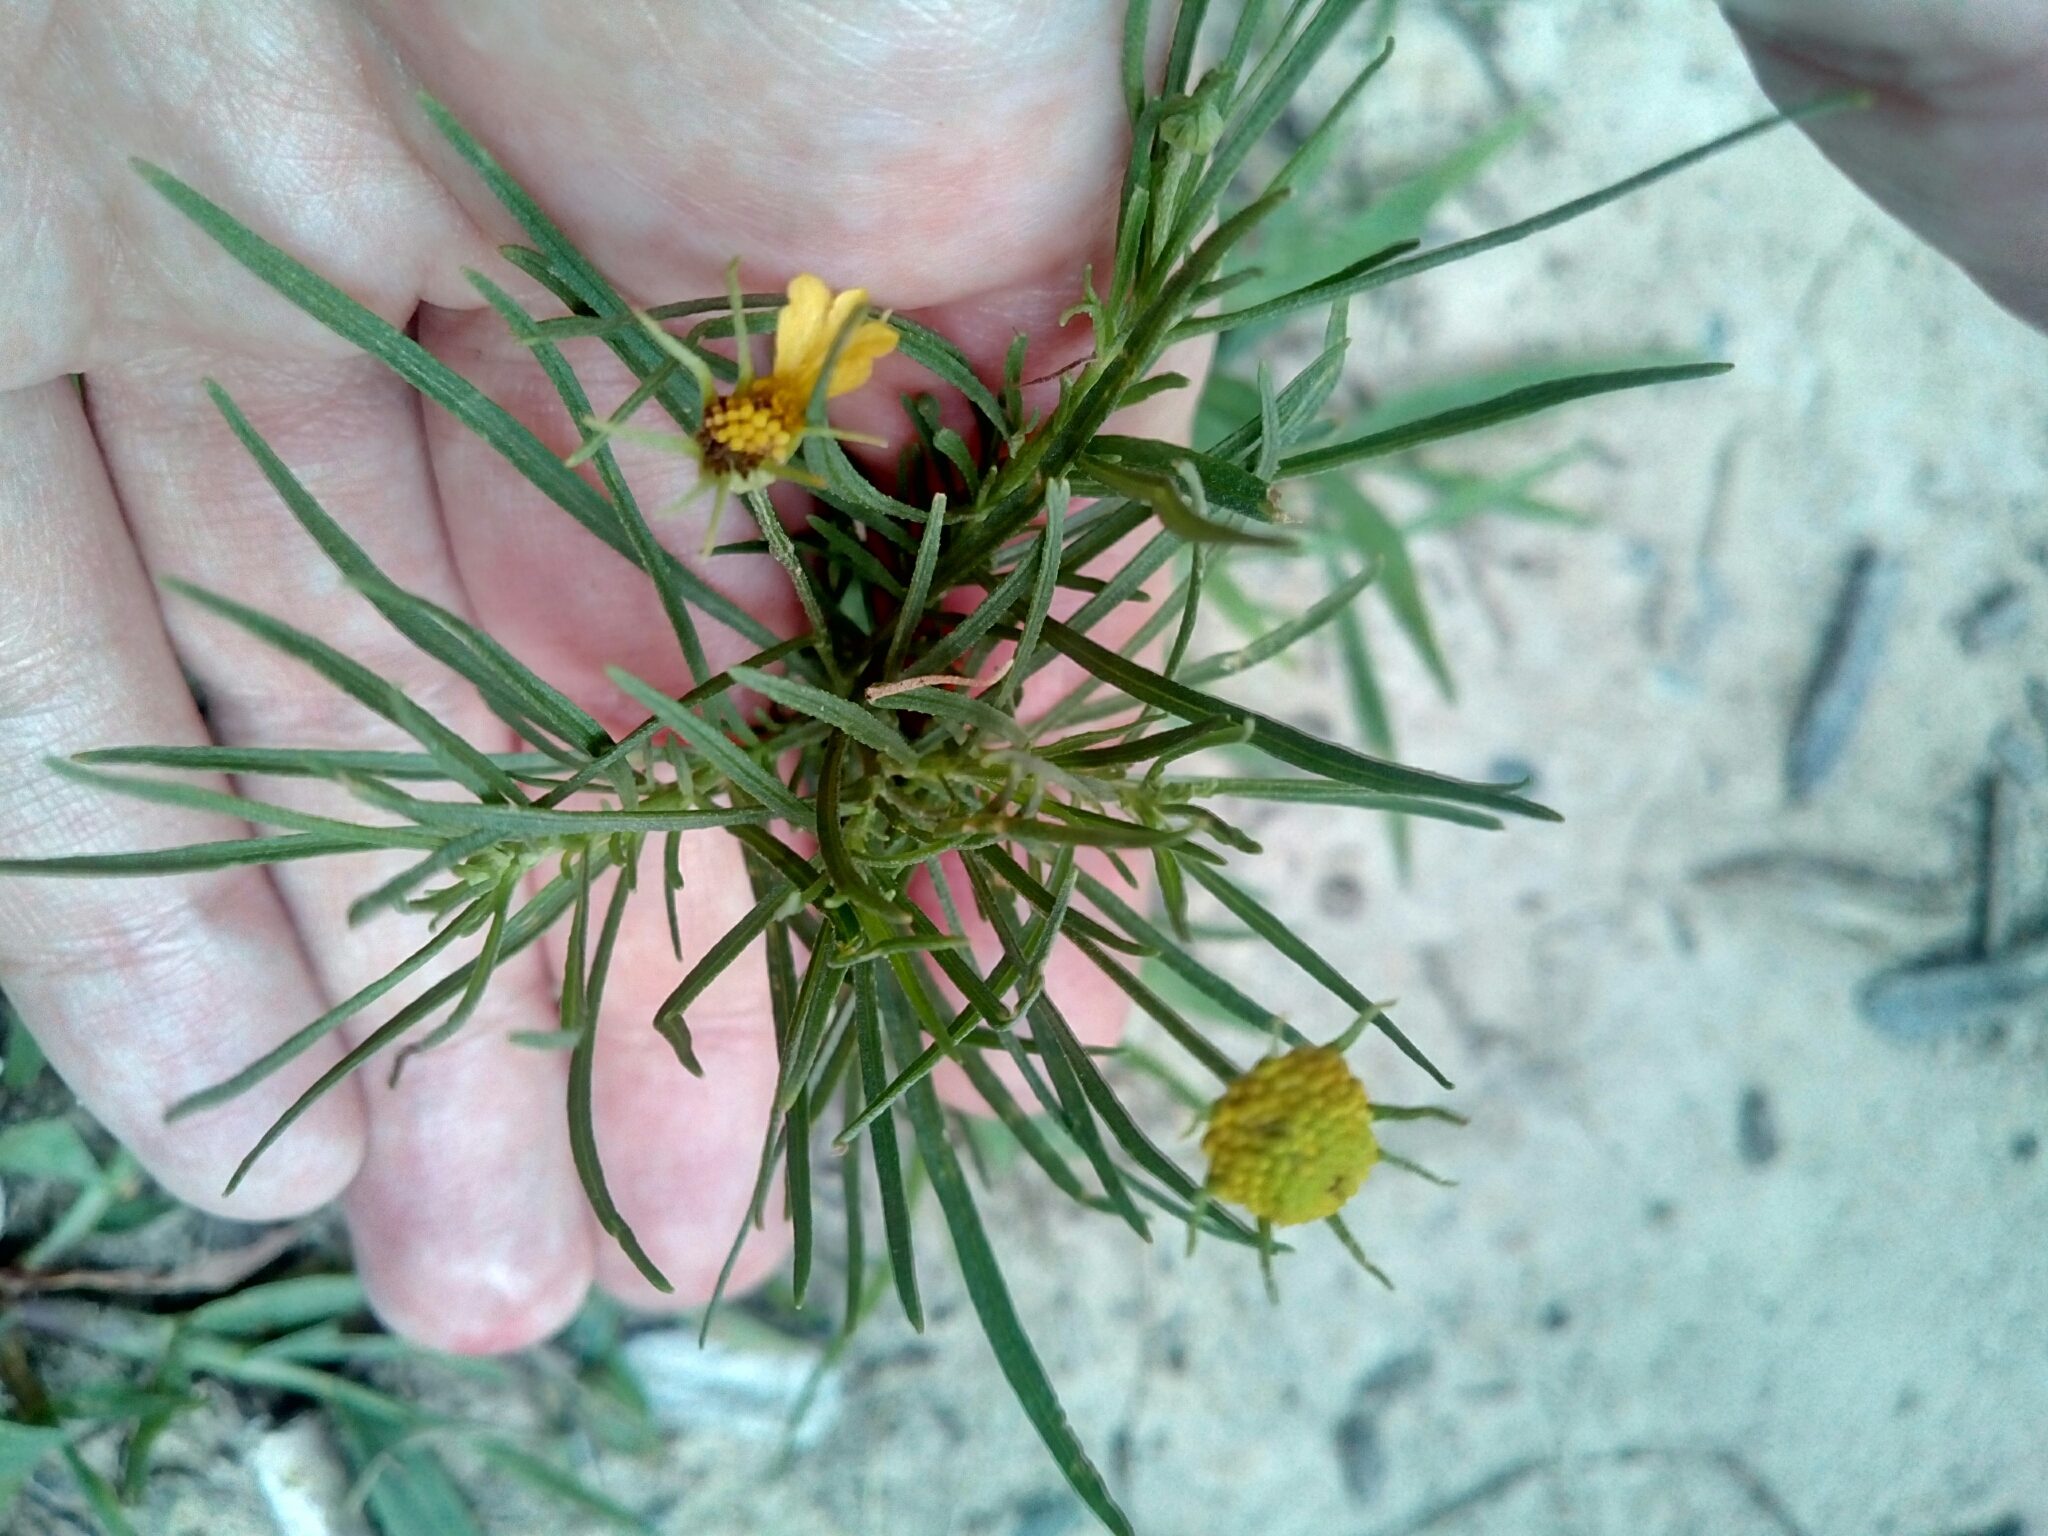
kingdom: Plantae
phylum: Tracheophyta
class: Magnoliopsida
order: Asterales
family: Asteraceae
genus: Helenium
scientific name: Helenium amarum
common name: Bitter sneezeweed
